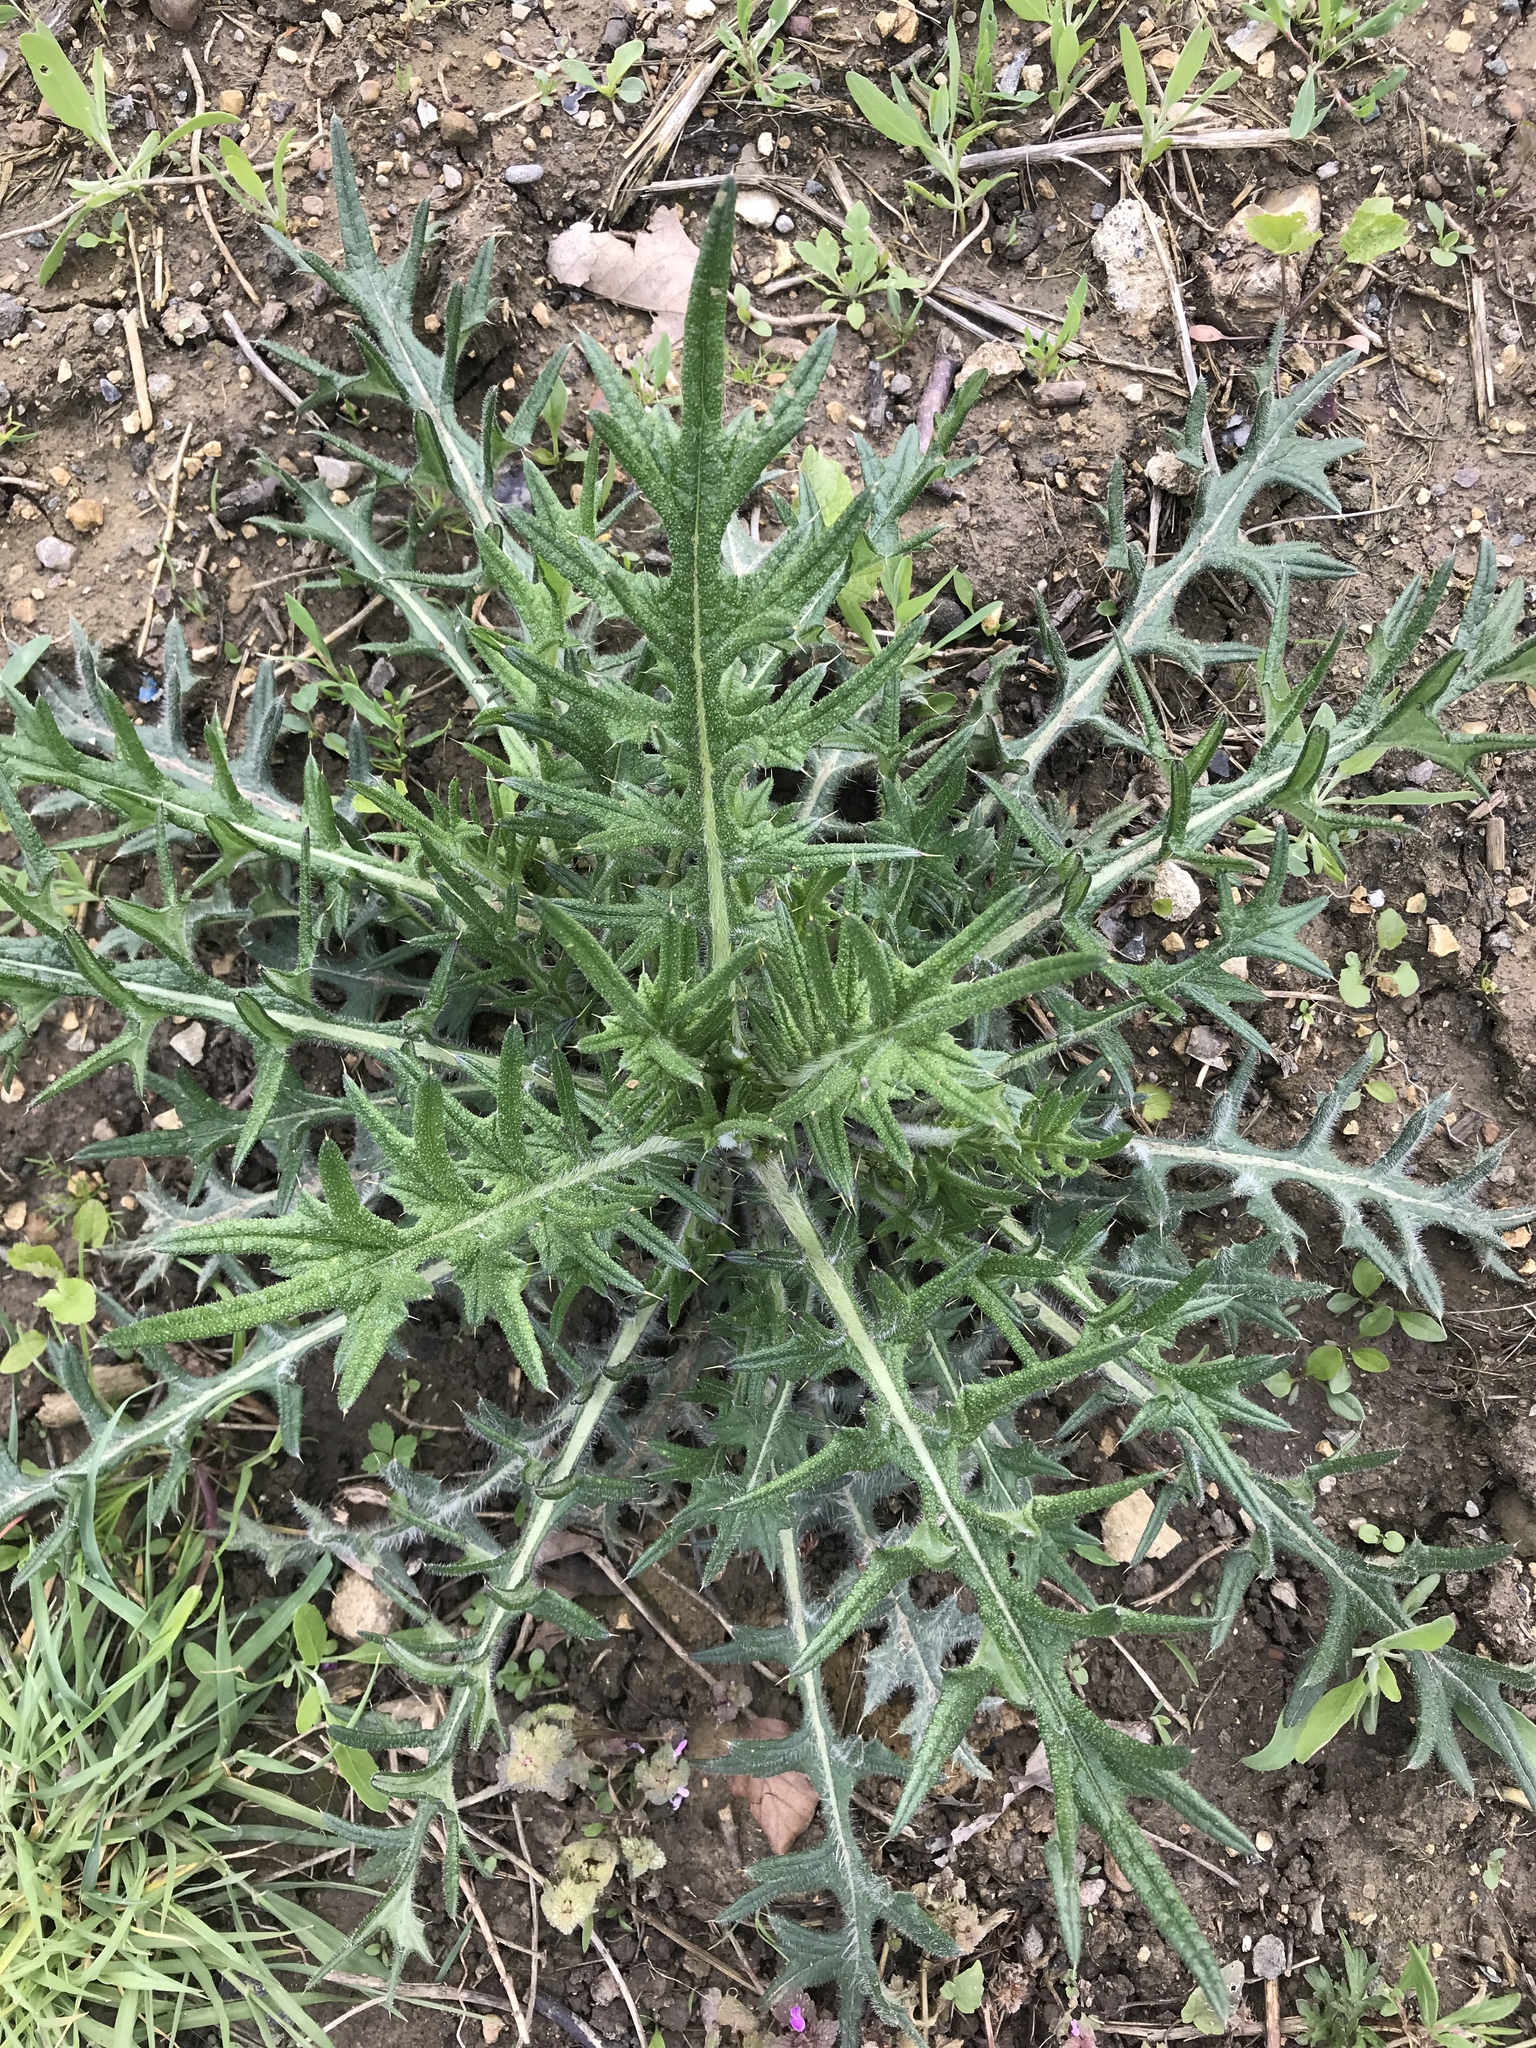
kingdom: Plantae
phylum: Tracheophyta
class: Magnoliopsida
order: Asterales
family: Asteraceae
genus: Cirsium
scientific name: Cirsium vulgare
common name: Bull thistle
